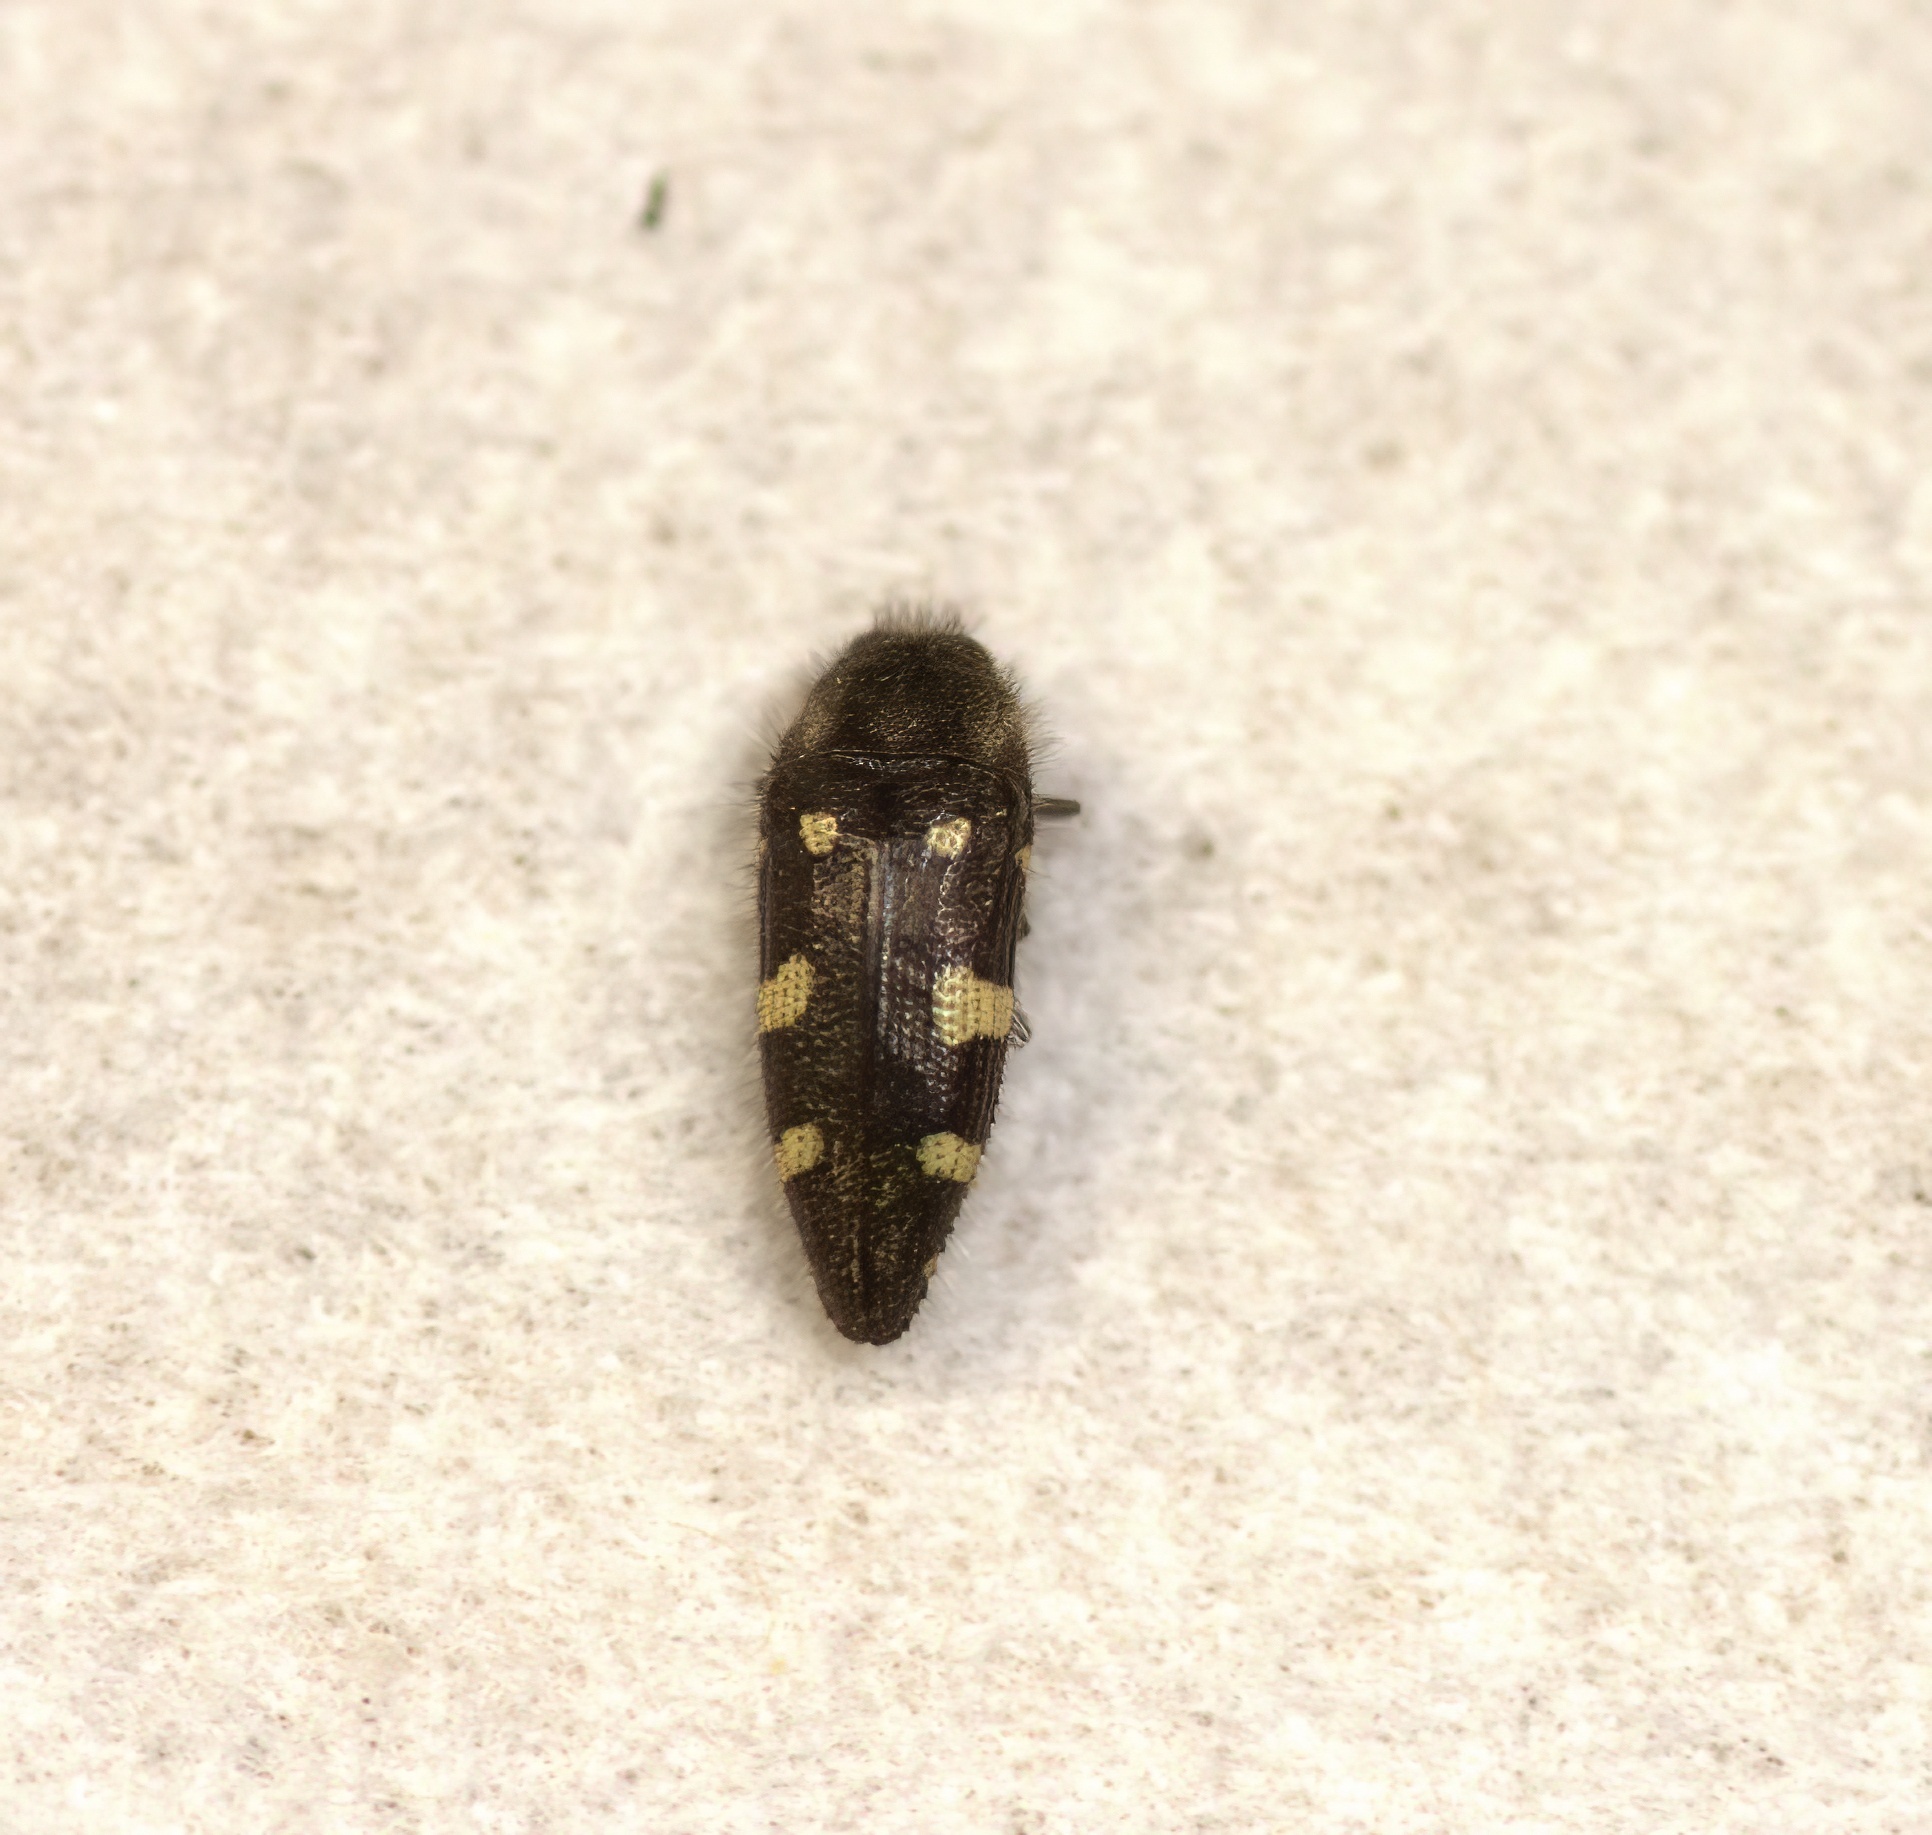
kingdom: Animalia
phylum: Arthropoda
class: Insecta
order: Coleoptera
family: Buprestidae
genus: Acmaeodera
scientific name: Acmaeodera pullata
